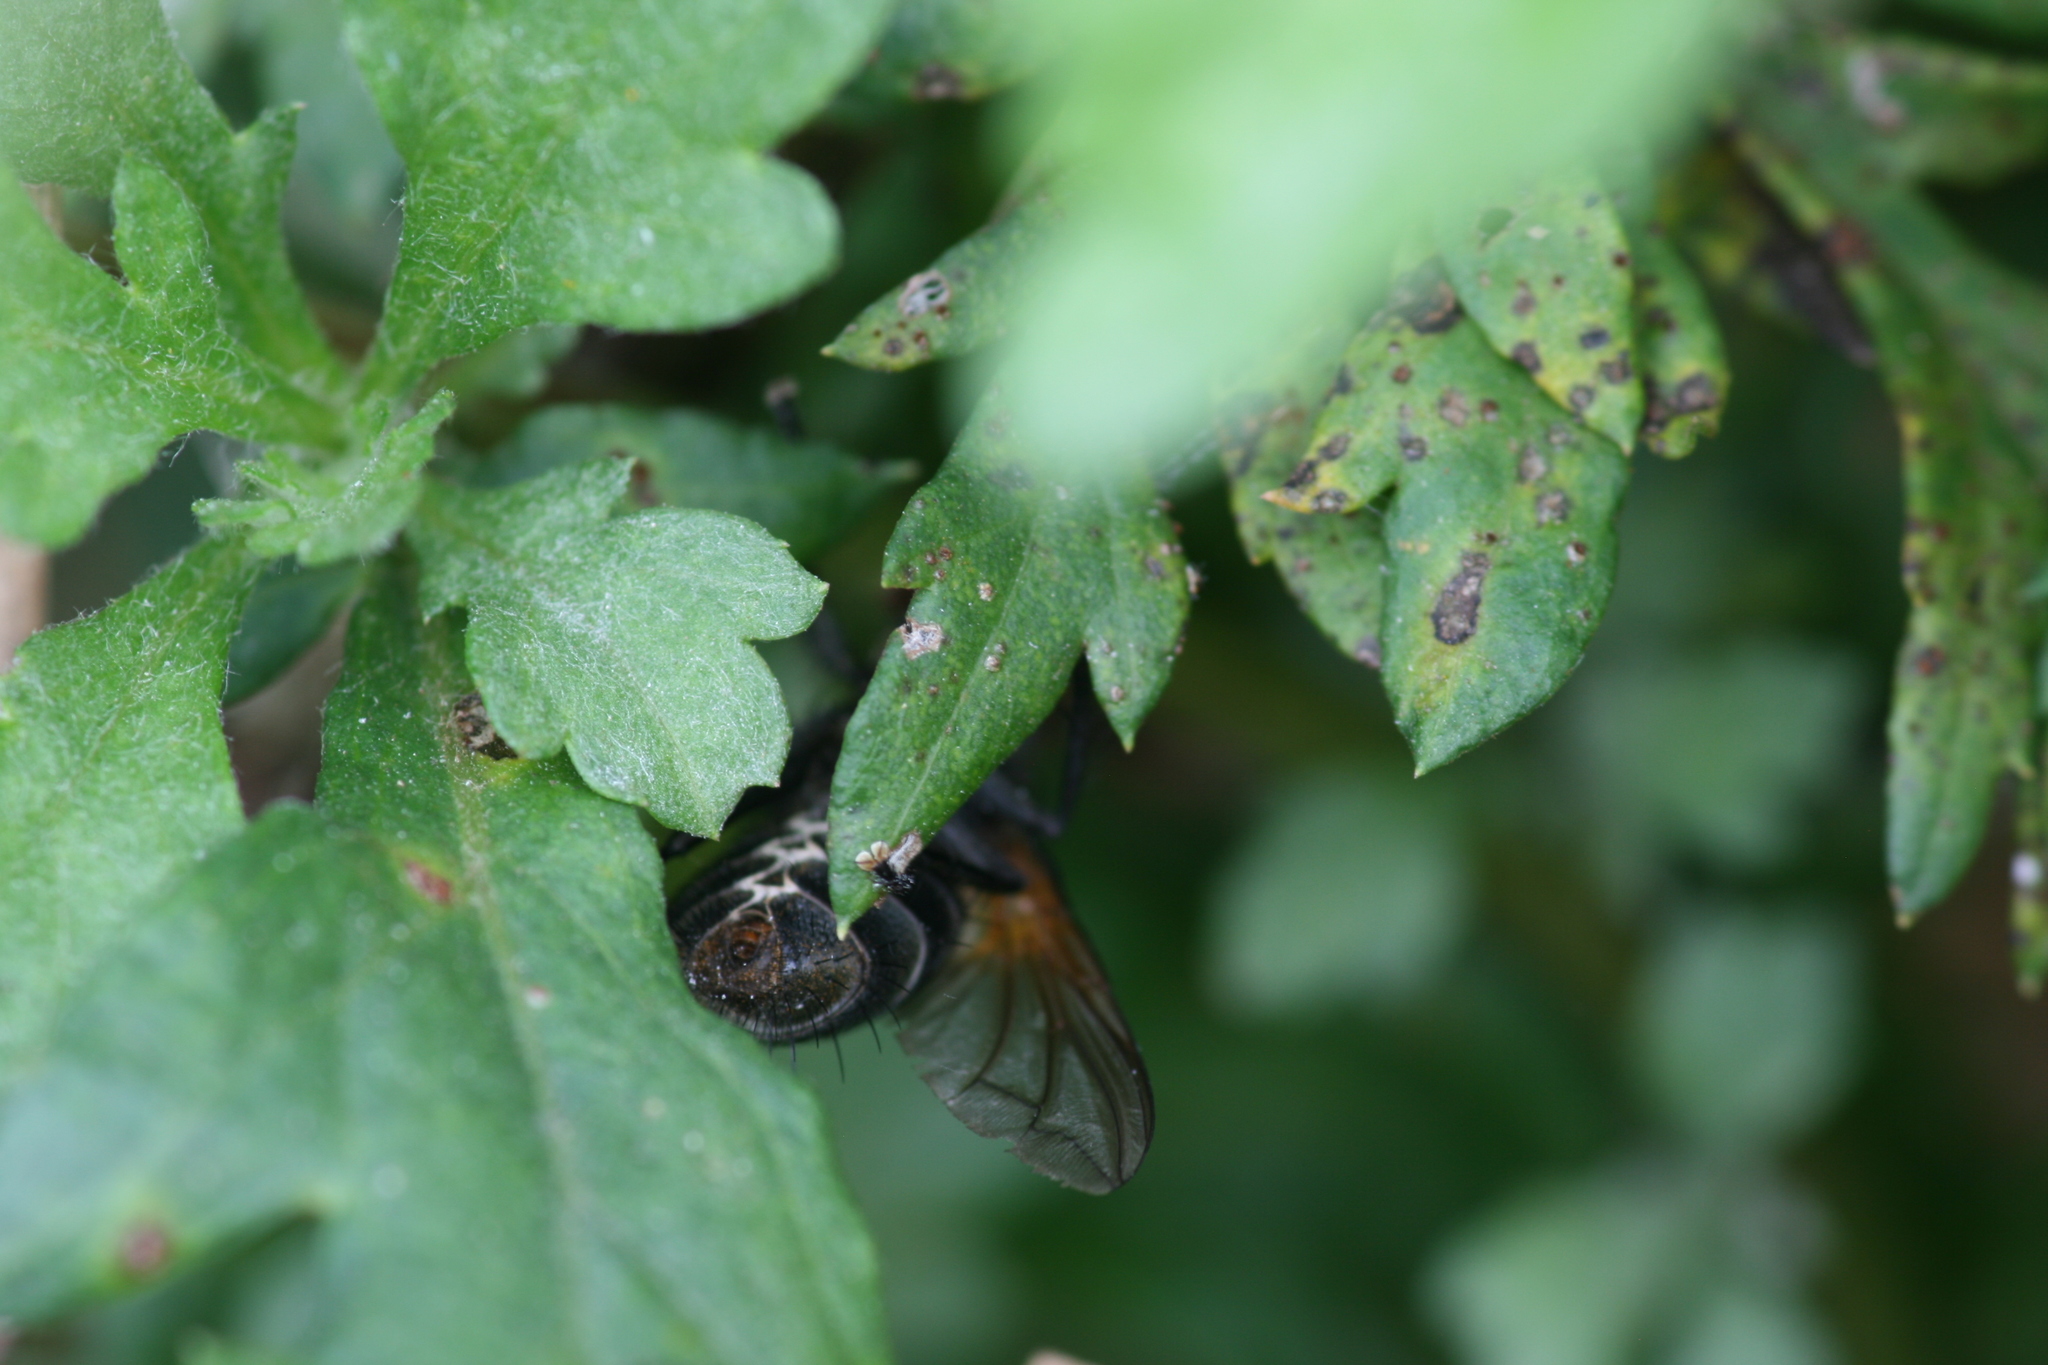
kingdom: Animalia
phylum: Arthropoda
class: Insecta
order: Diptera
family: Tachinidae
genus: Nemoraea
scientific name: Nemoraea pellucida
